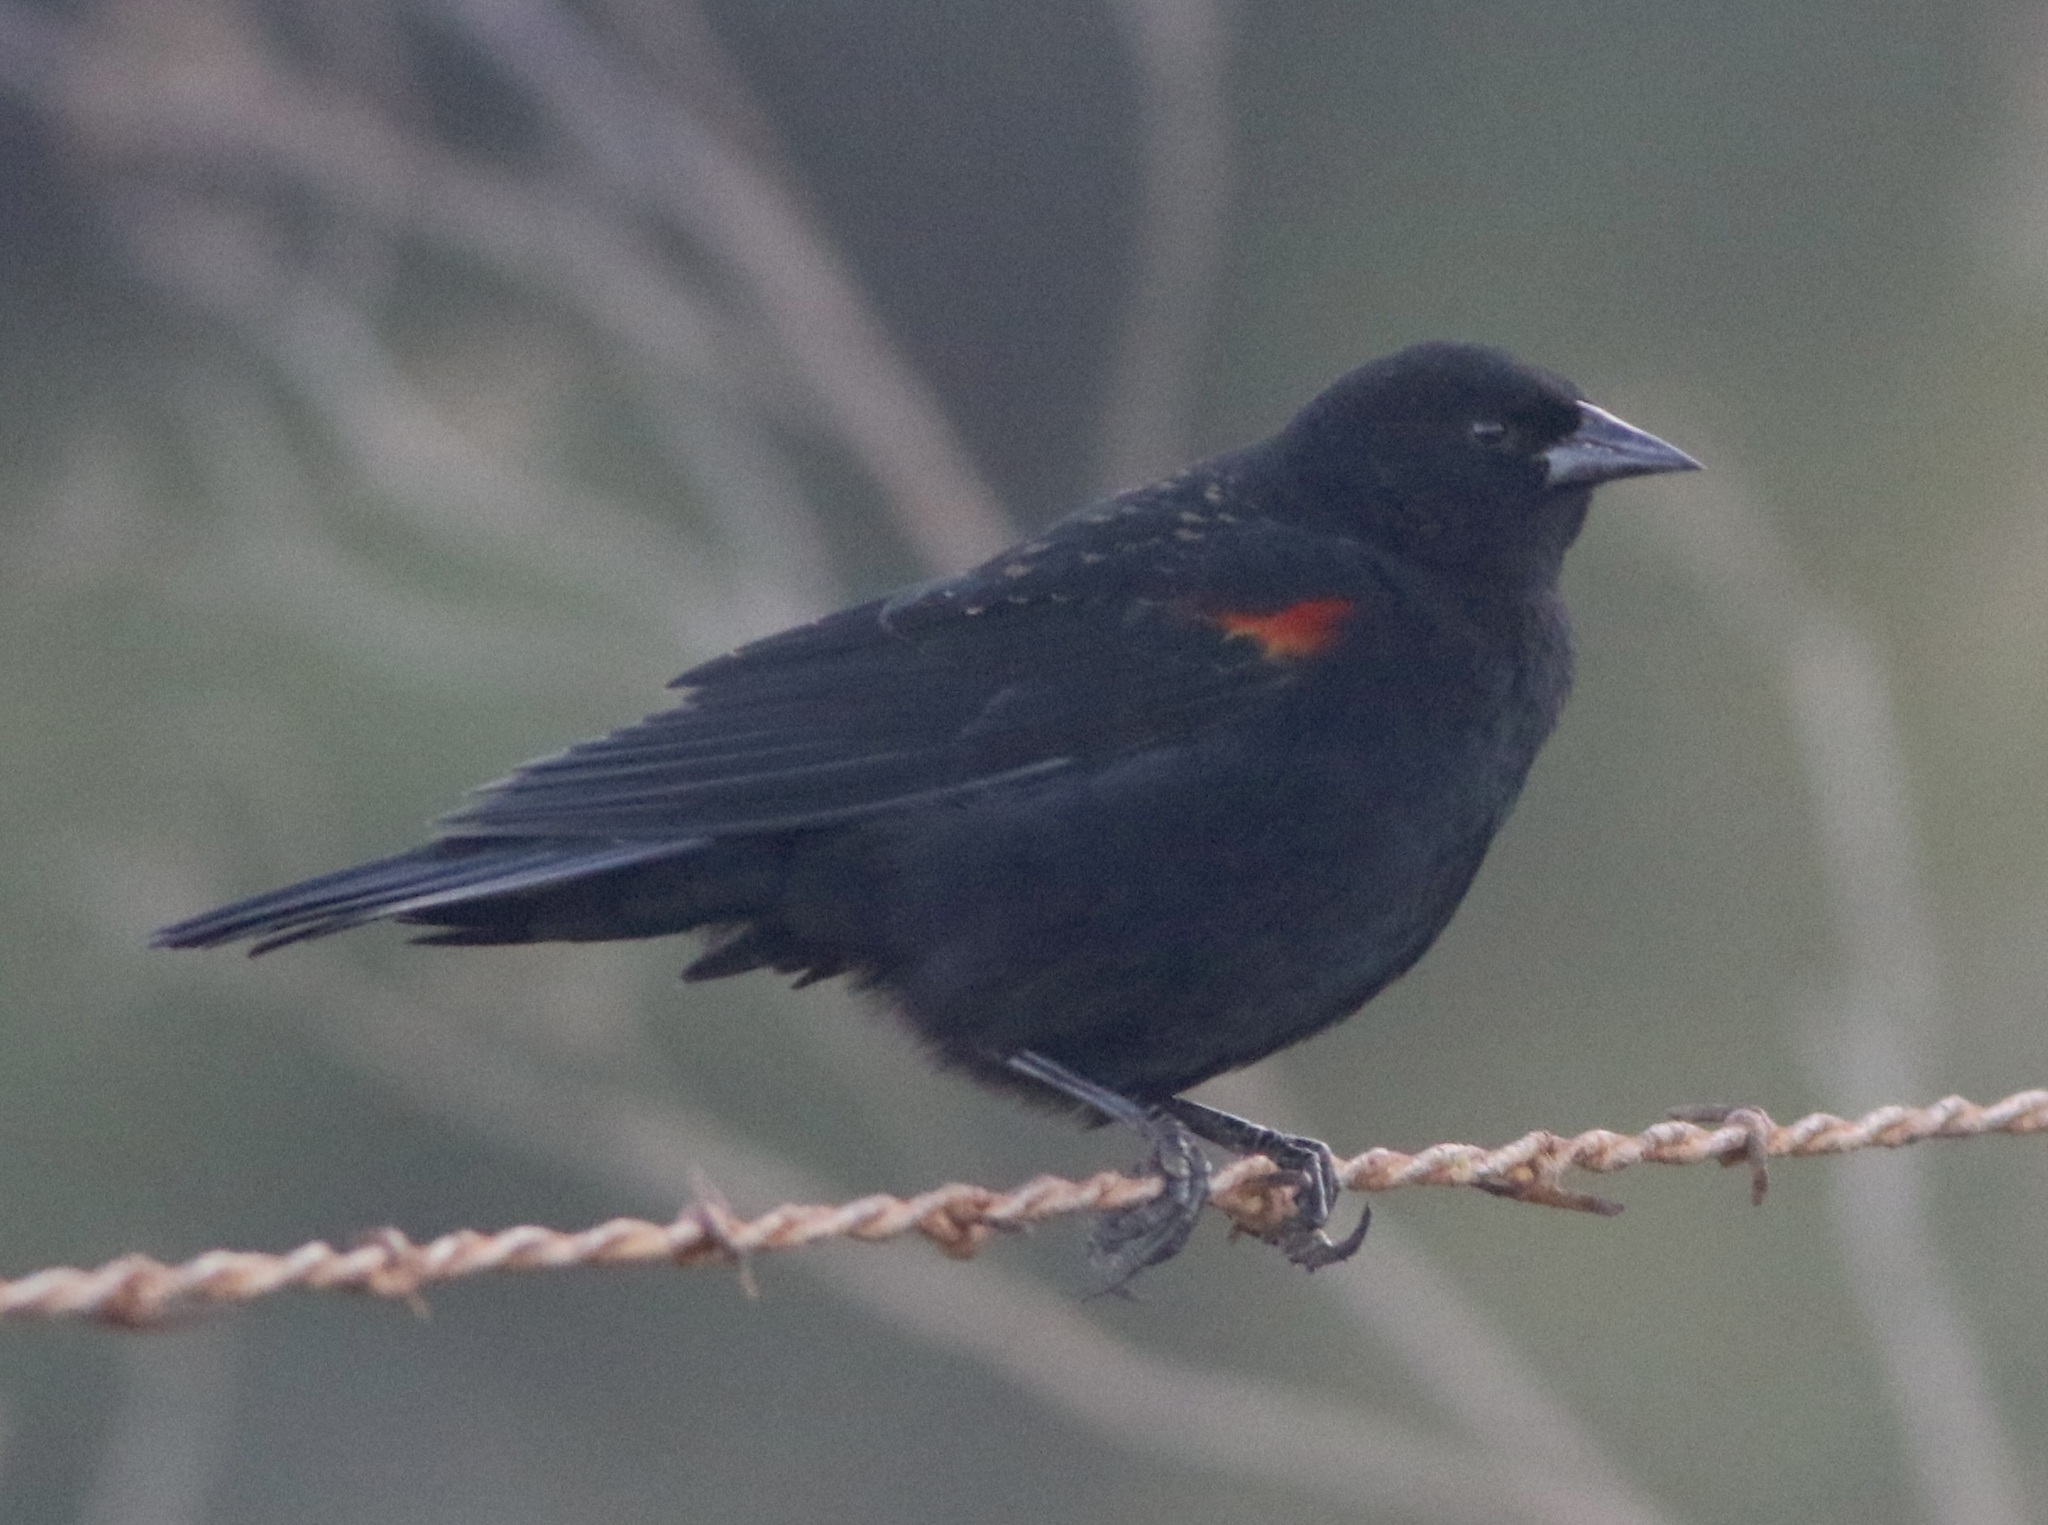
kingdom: Animalia
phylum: Chordata
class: Aves
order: Passeriformes
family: Icteridae
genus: Agelaius
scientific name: Agelaius phoeniceus
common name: Red-winged blackbird
